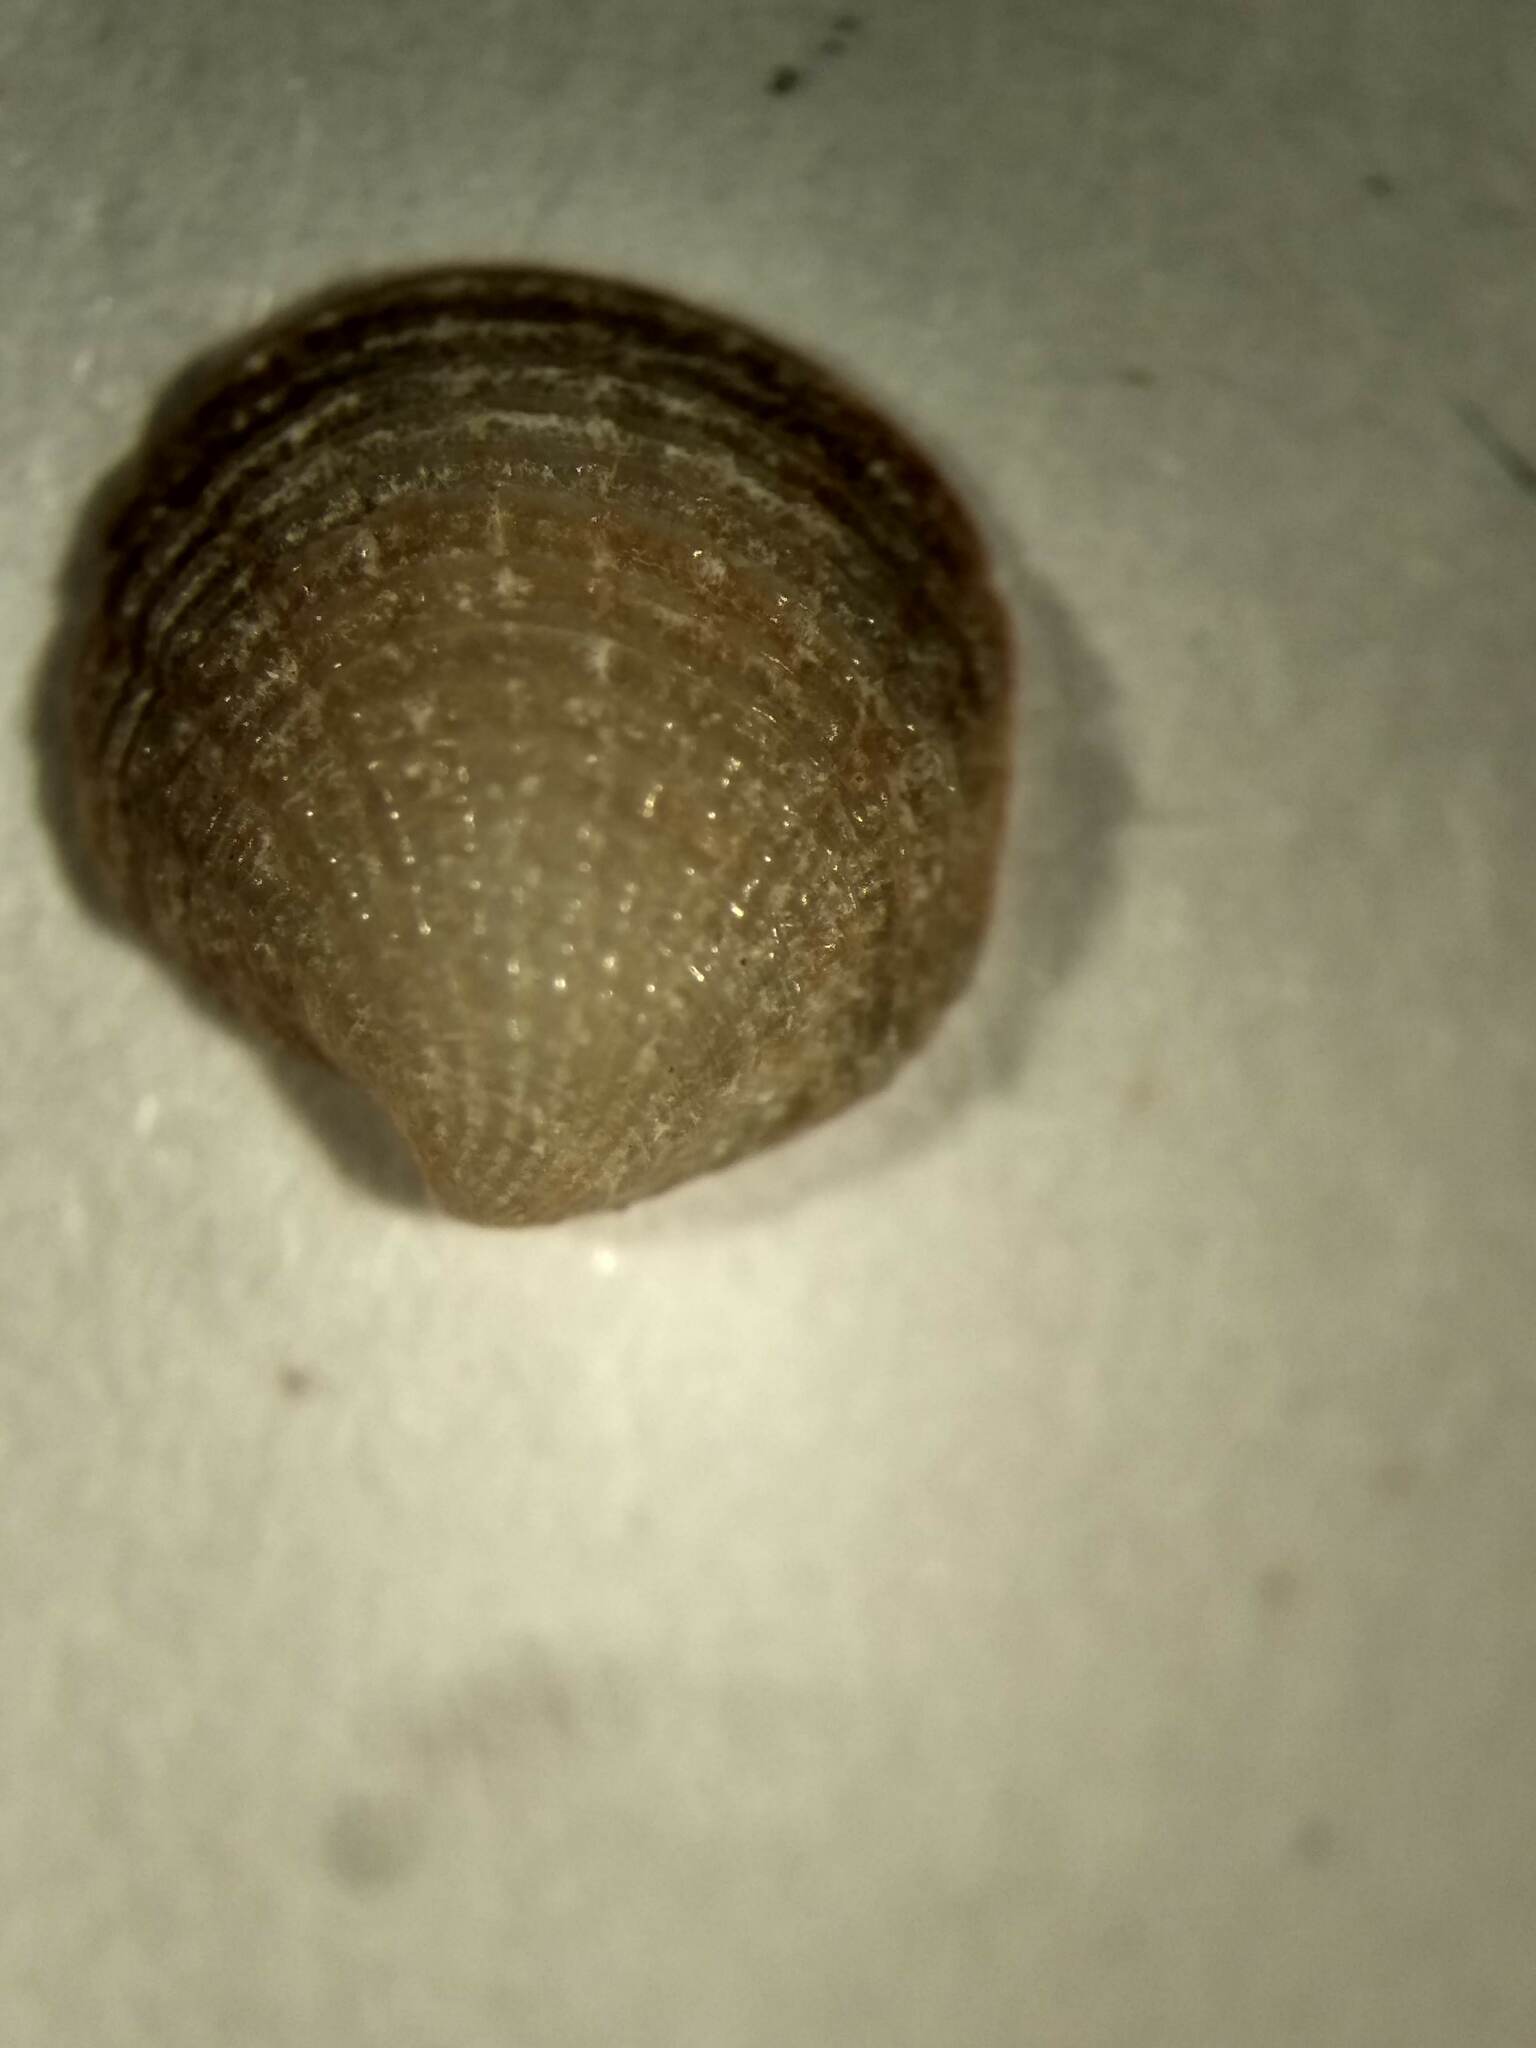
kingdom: Animalia
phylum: Mollusca
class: Bivalvia
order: Lucinida
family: Lucinidae
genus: Radiolucina
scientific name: Radiolucina amianta
